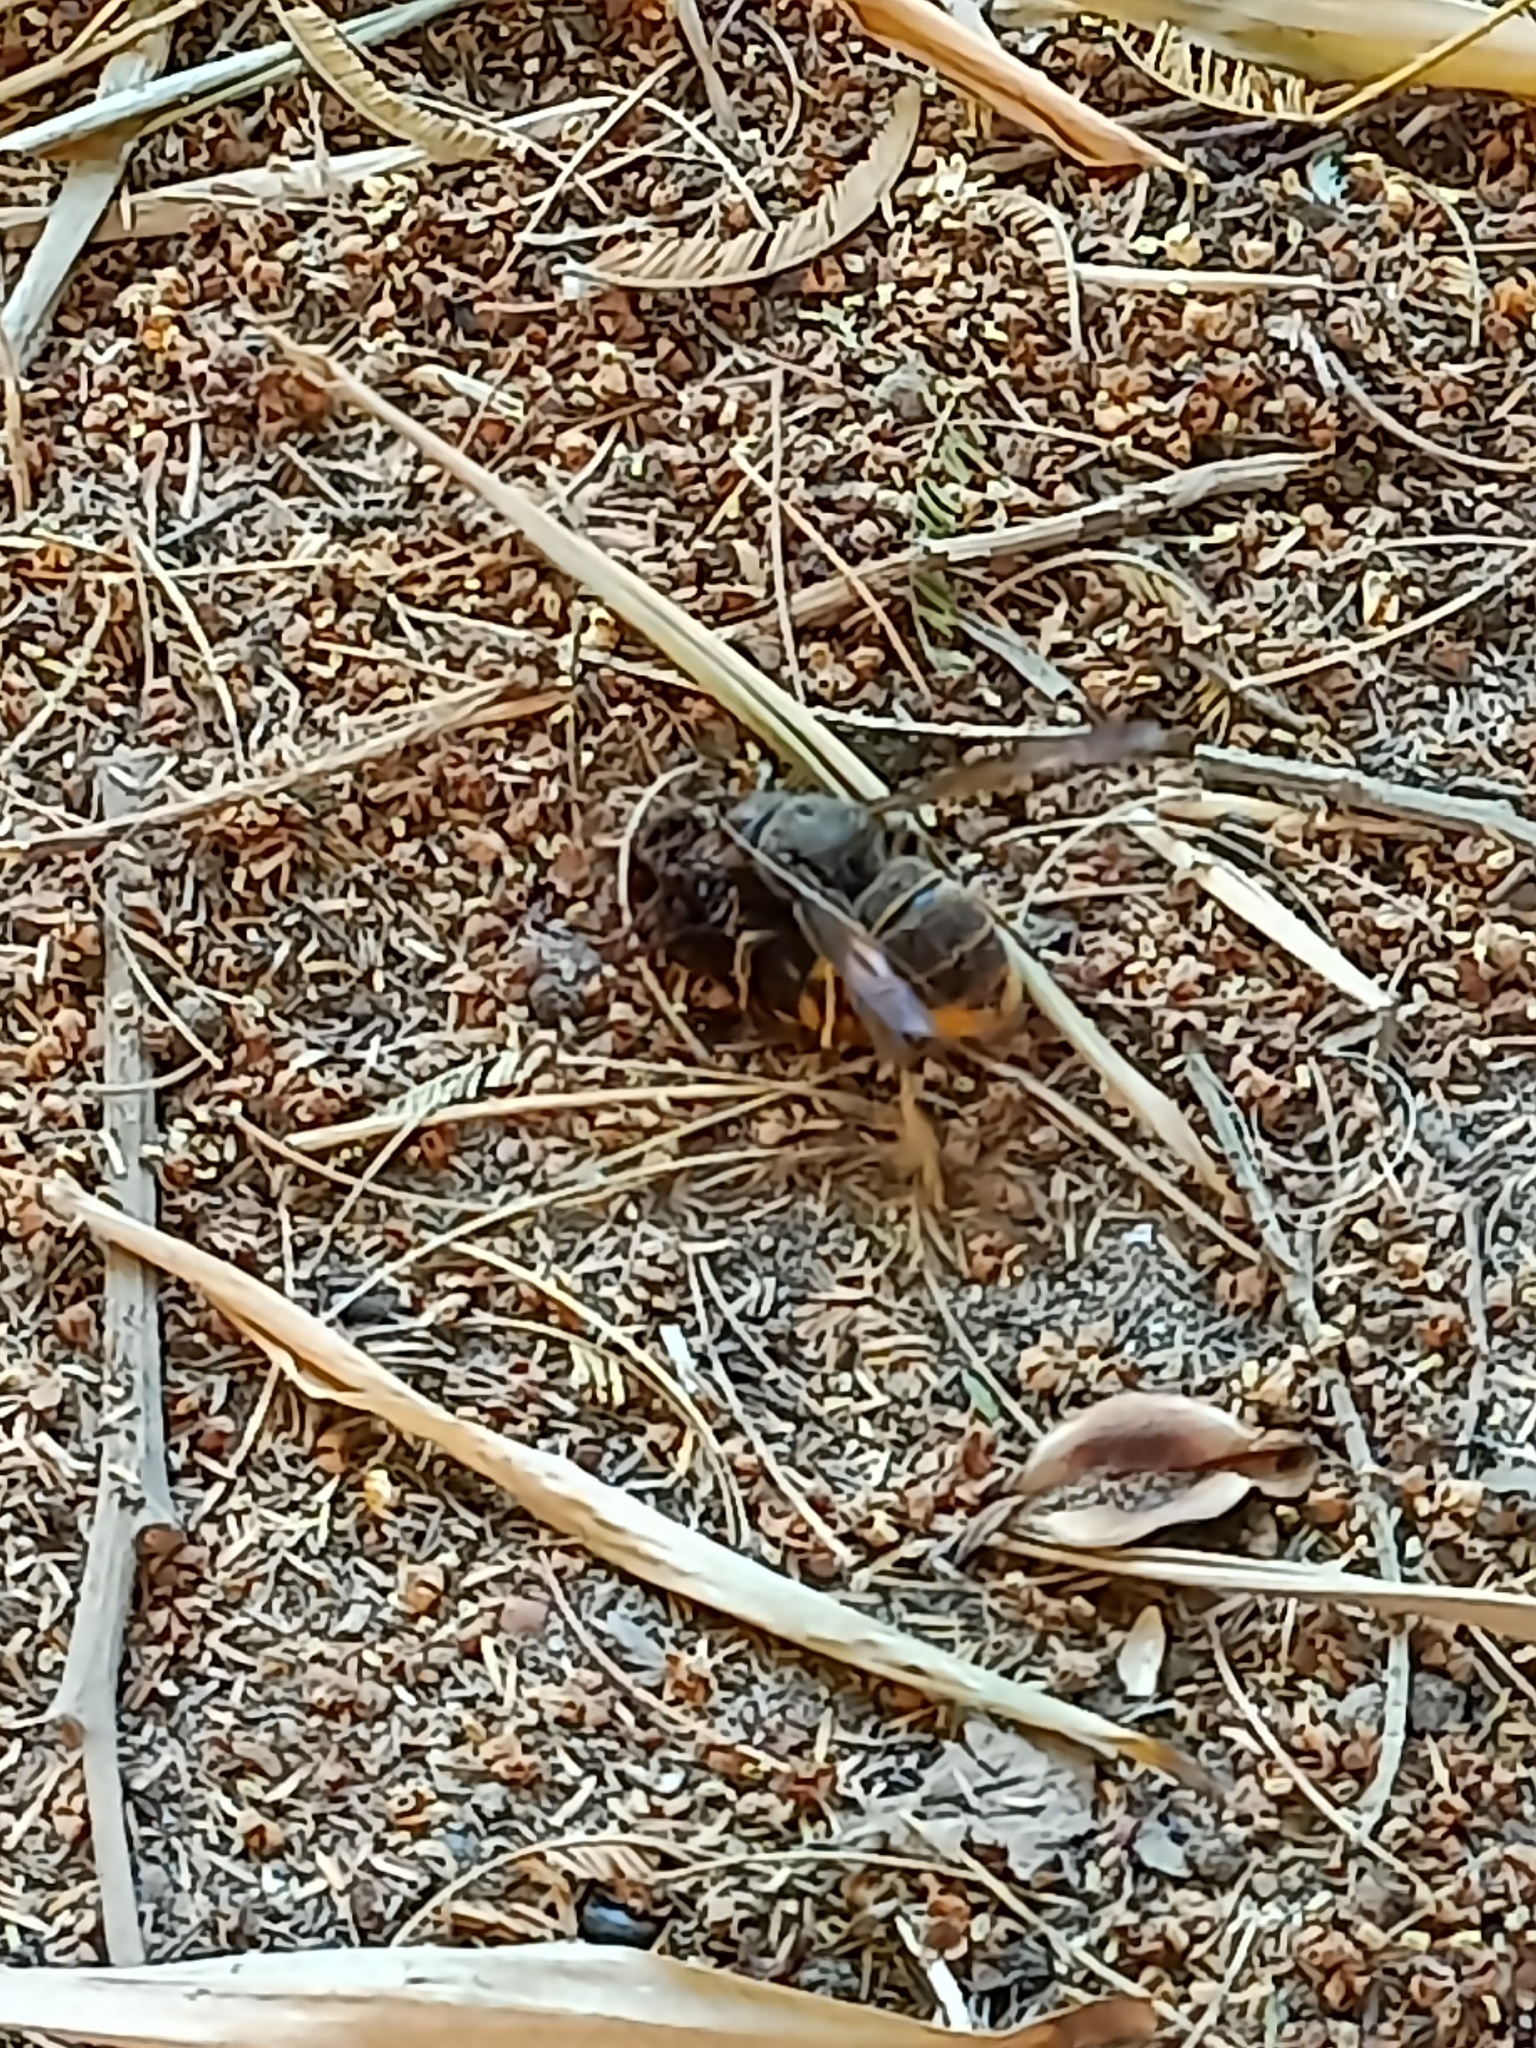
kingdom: Animalia
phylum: Arthropoda
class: Insecta
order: Hymenoptera
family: Vespidae
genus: Vespa
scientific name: Vespa velutina
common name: Asian hornet
